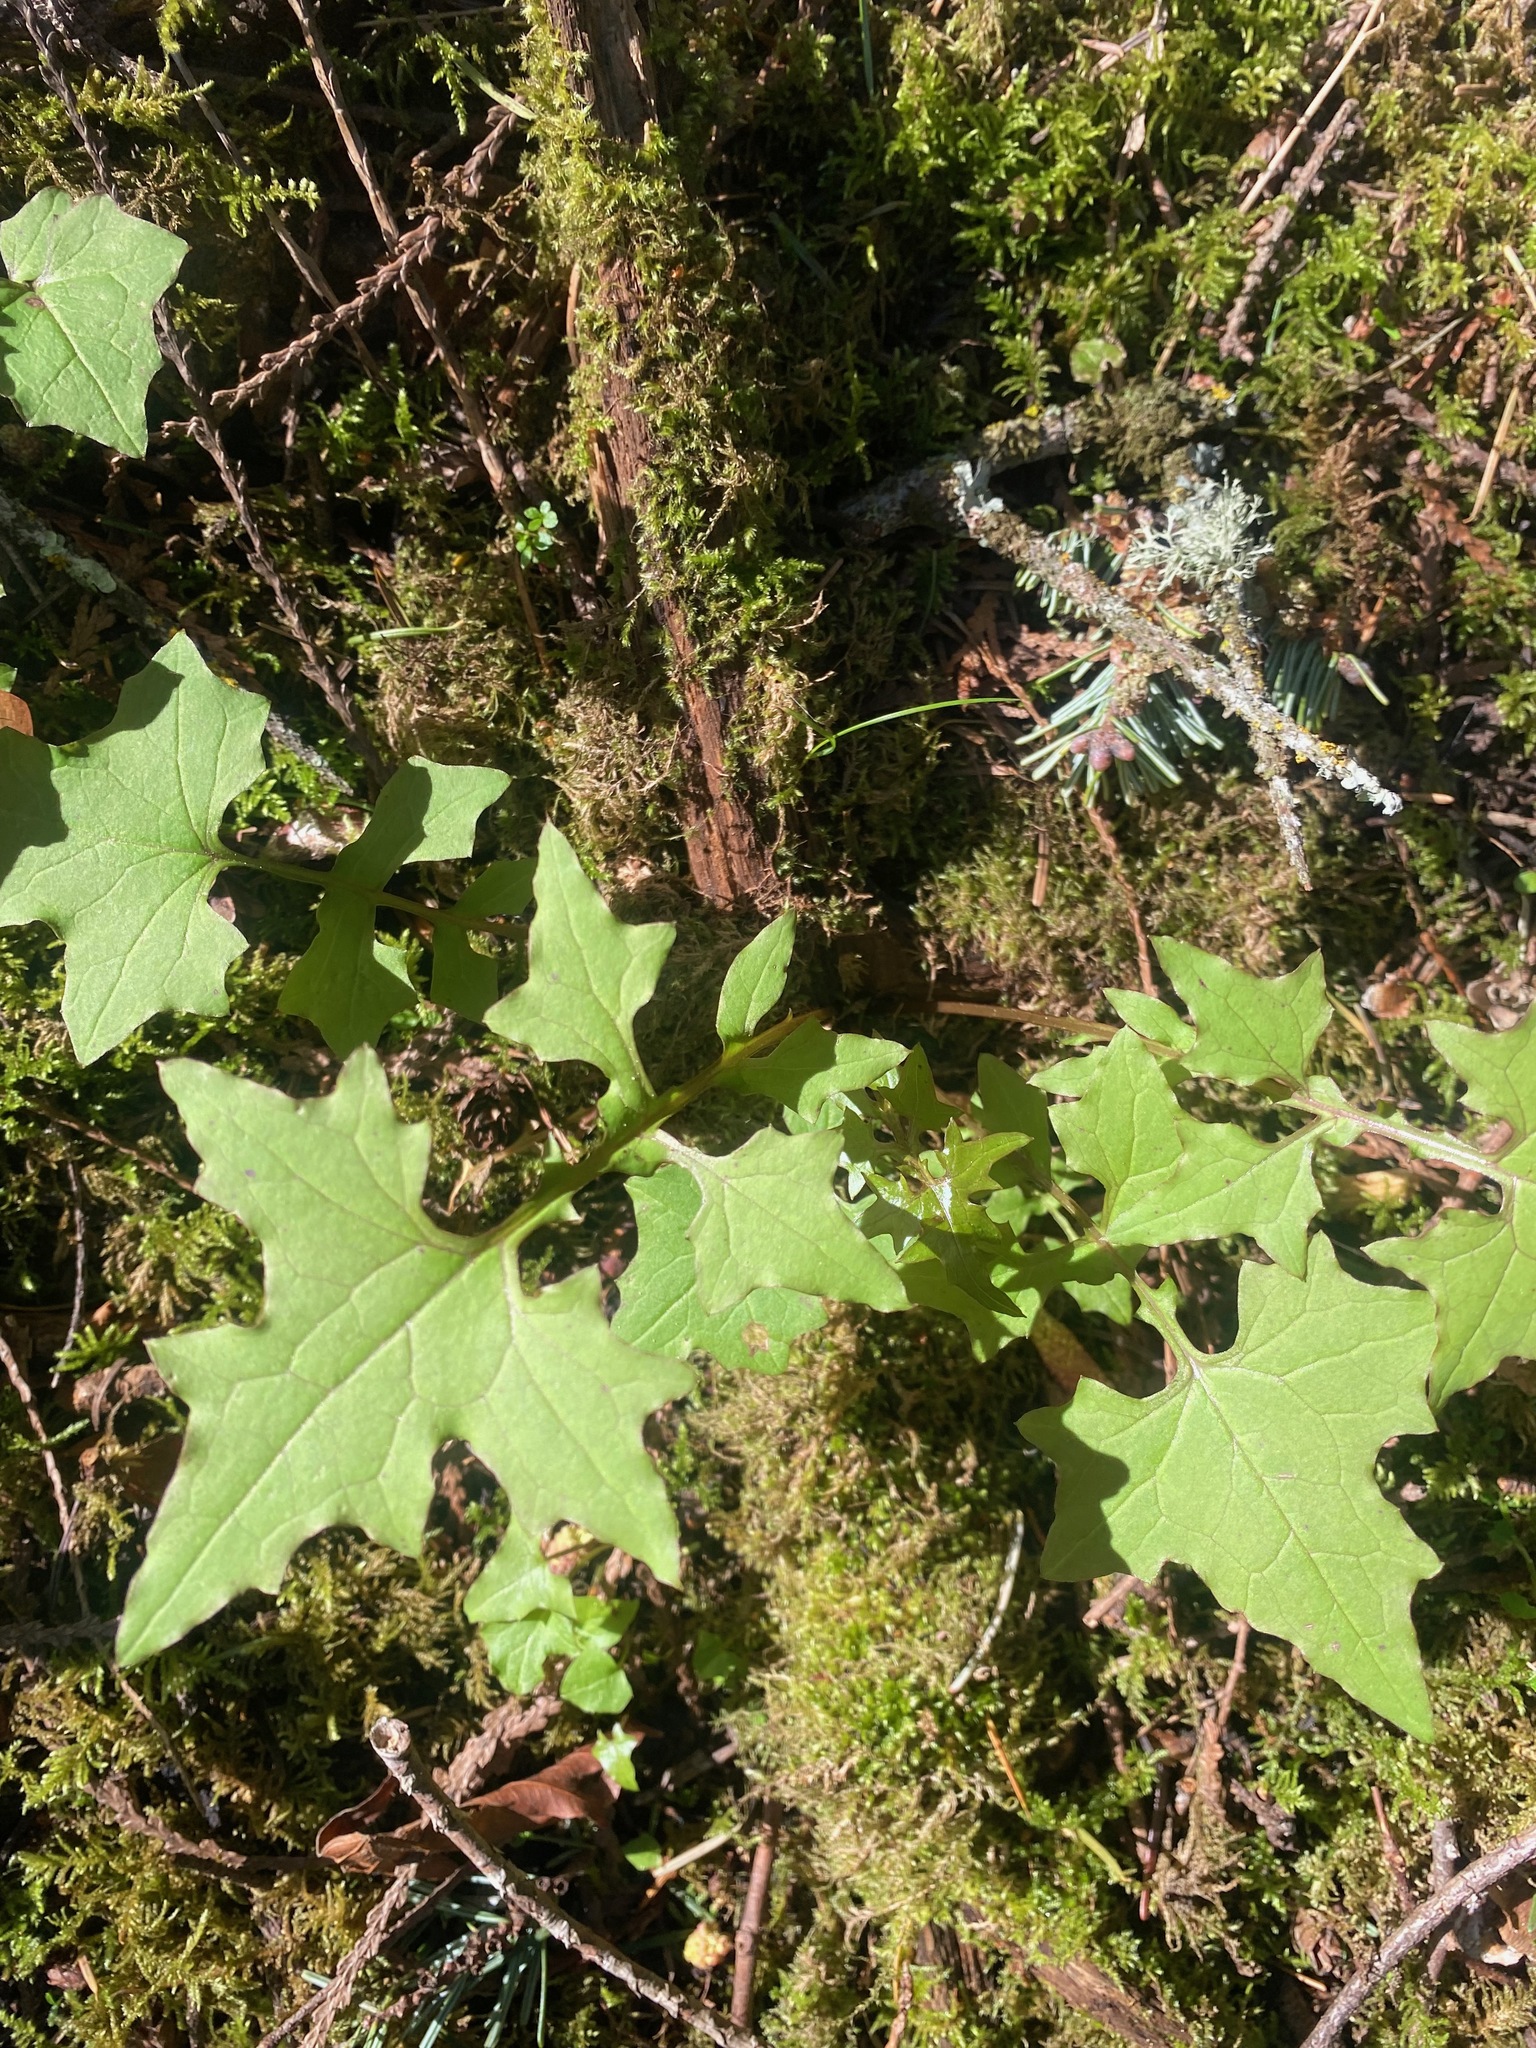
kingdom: Plantae
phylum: Tracheophyta
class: Magnoliopsida
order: Asterales
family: Asteraceae
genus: Mycelis
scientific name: Mycelis muralis
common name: Wall lettuce
